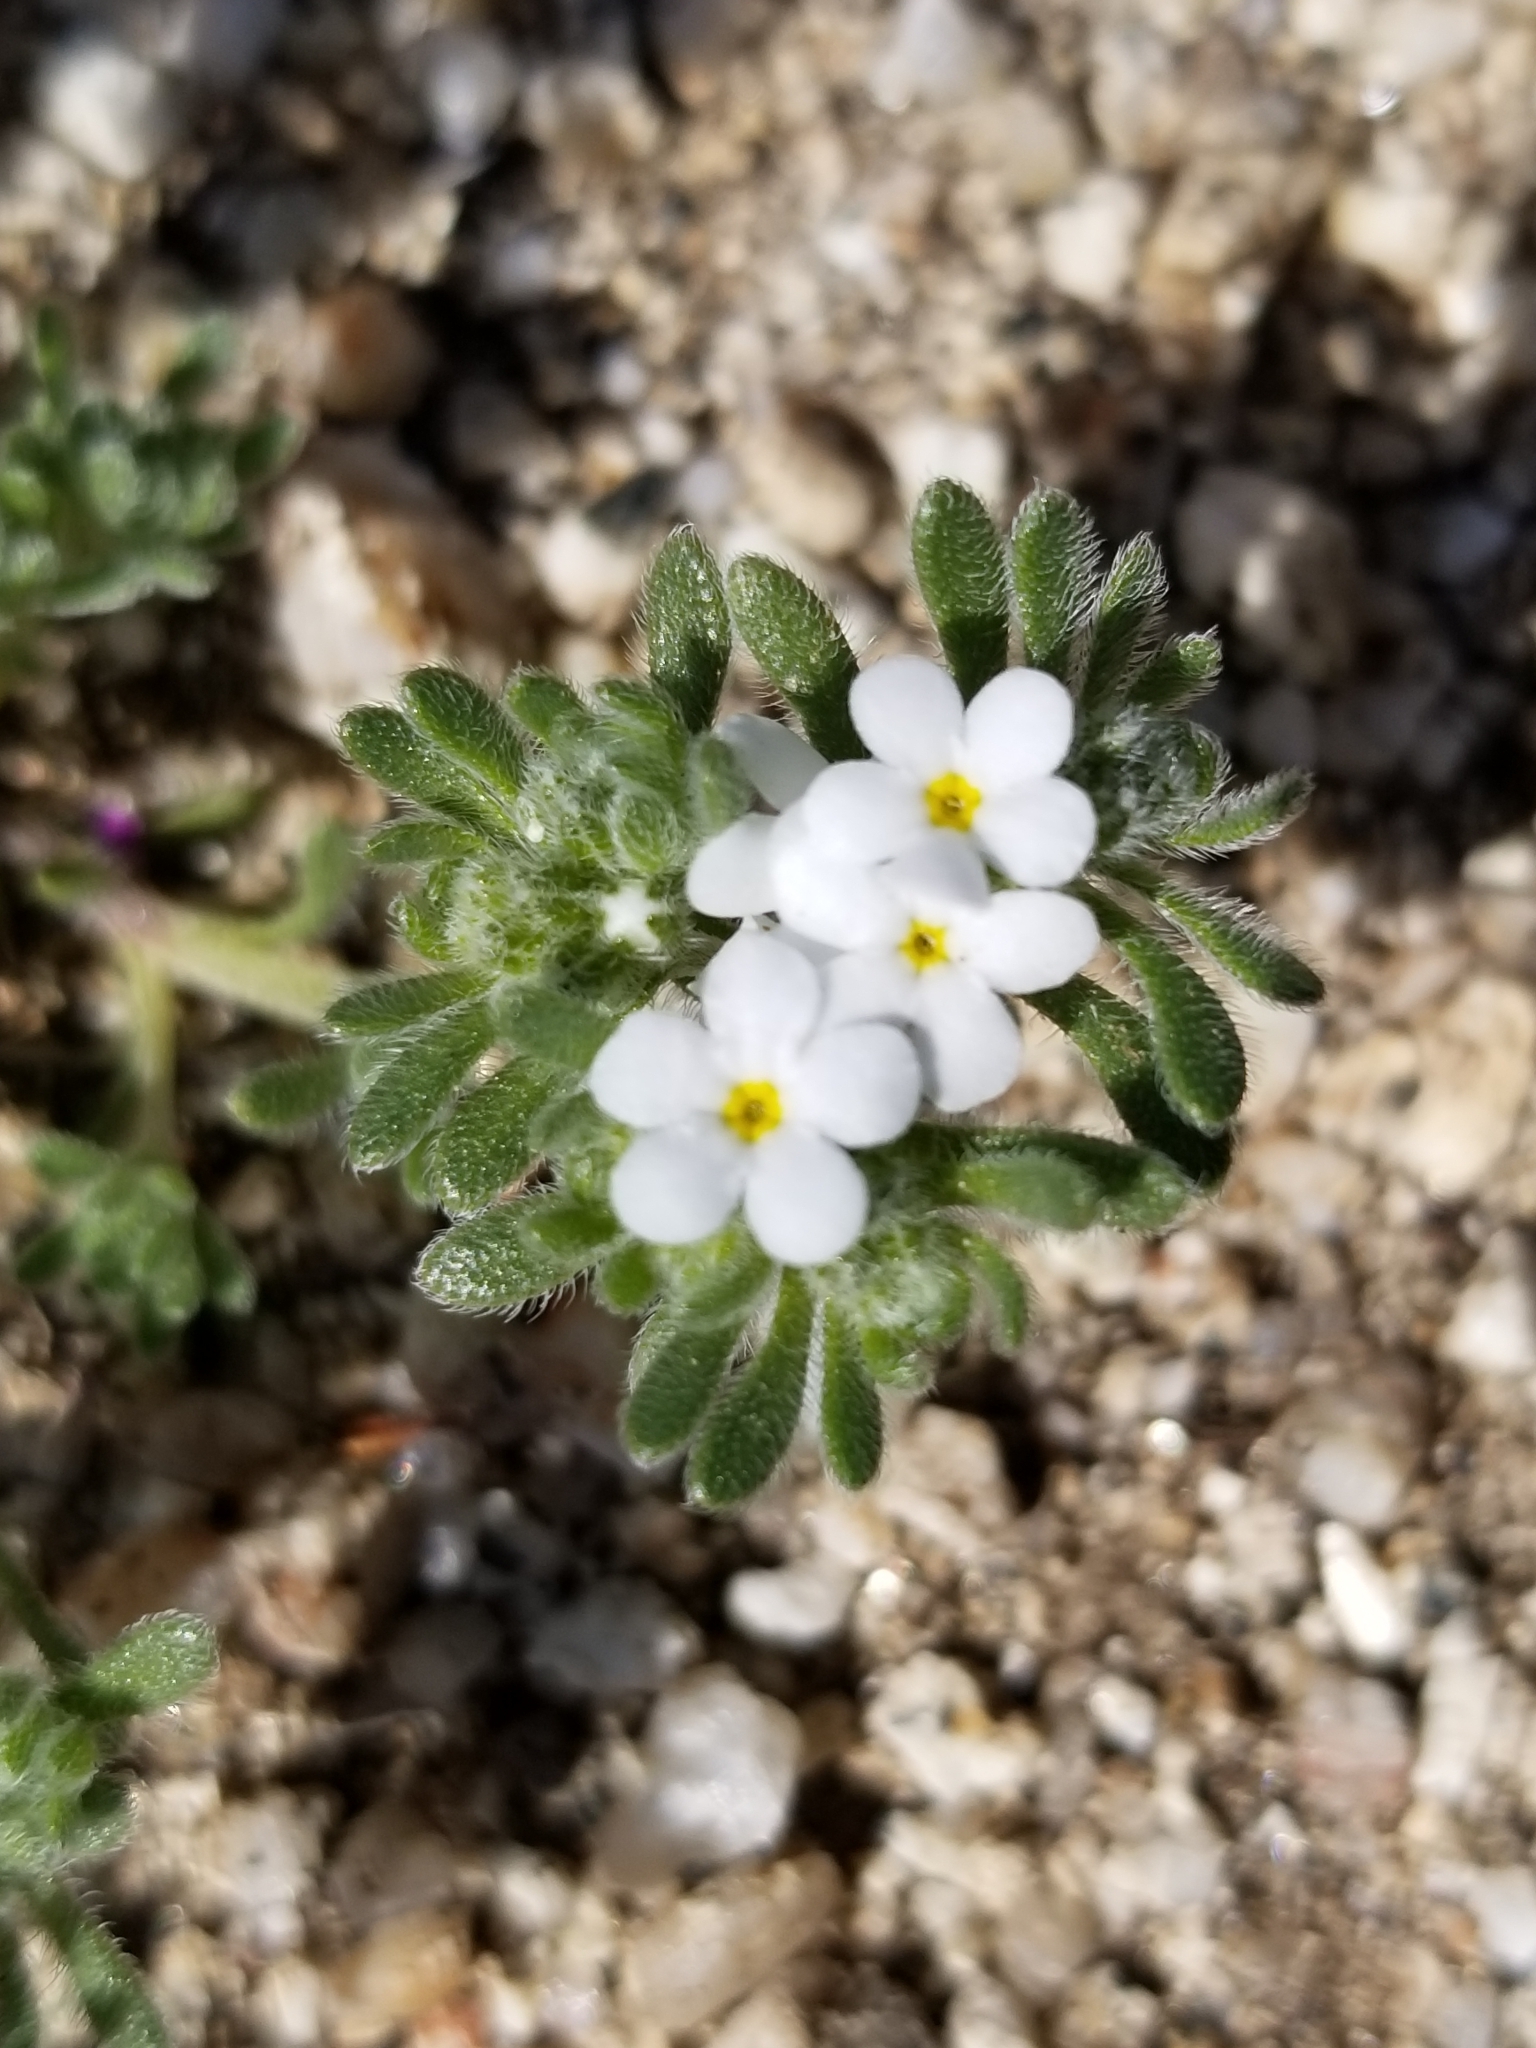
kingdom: Plantae
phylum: Tracheophyta
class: Magnoliopsida
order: Boraginales
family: Boraginaceae
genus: Eremocarya
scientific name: Eremocarya lepida
